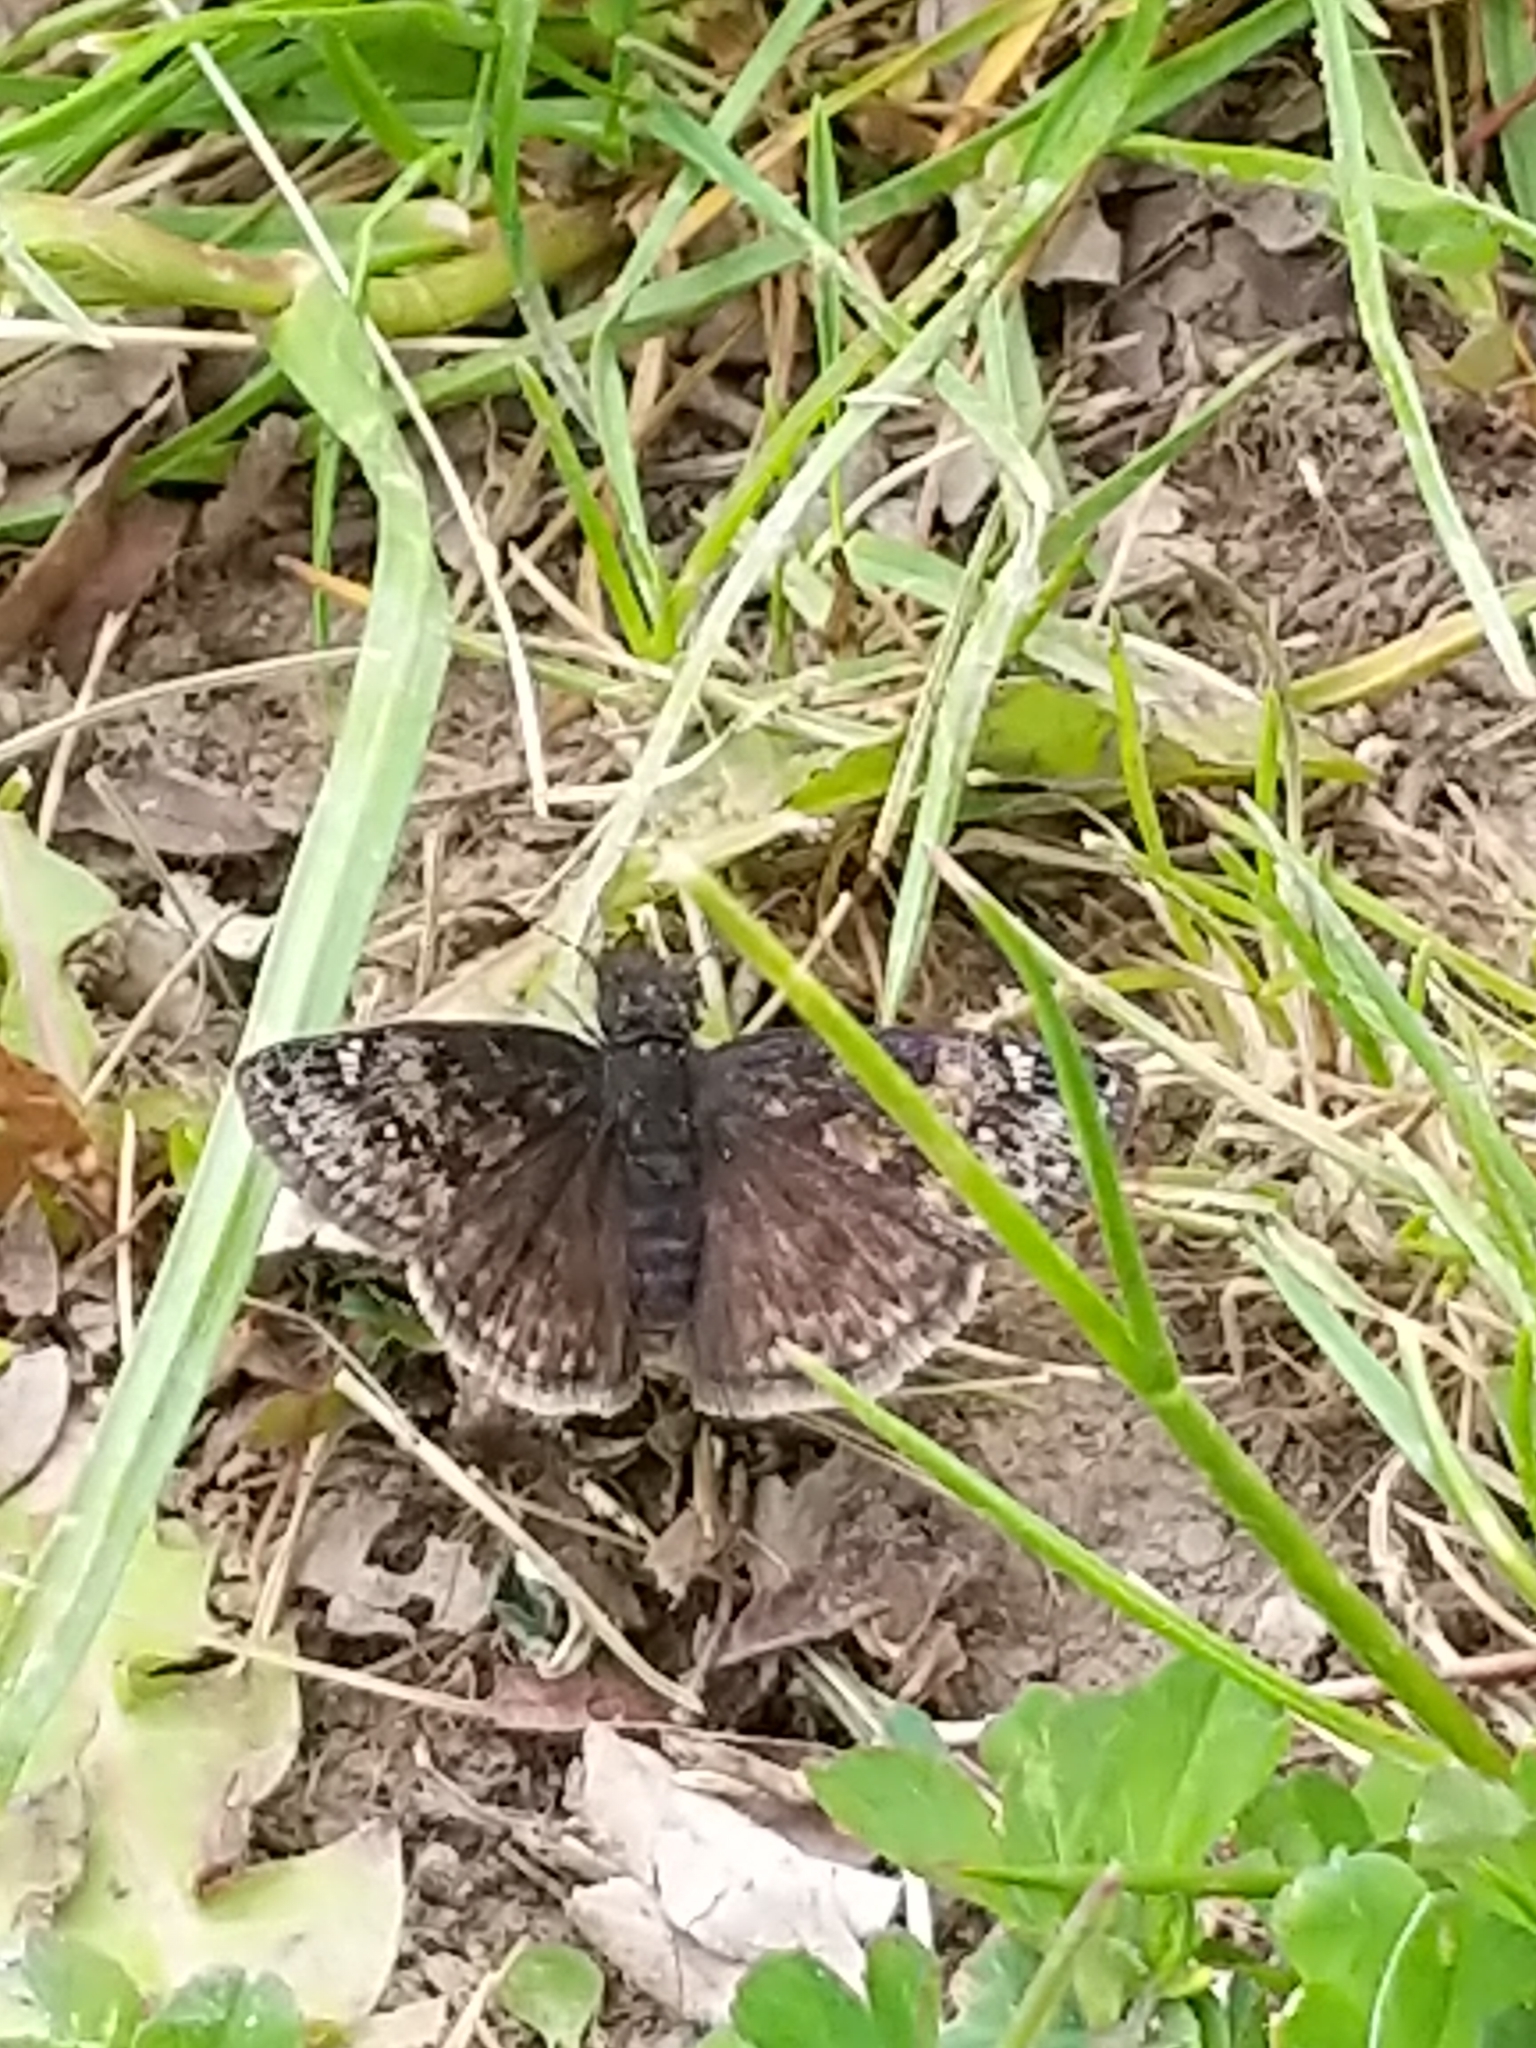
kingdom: Animalia
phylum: Arthropoda
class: Insecta
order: Lepidoptera
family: Hesperiidae
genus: Erynnis
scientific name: Erynnis baptisiae
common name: Wild indigo duskywing
